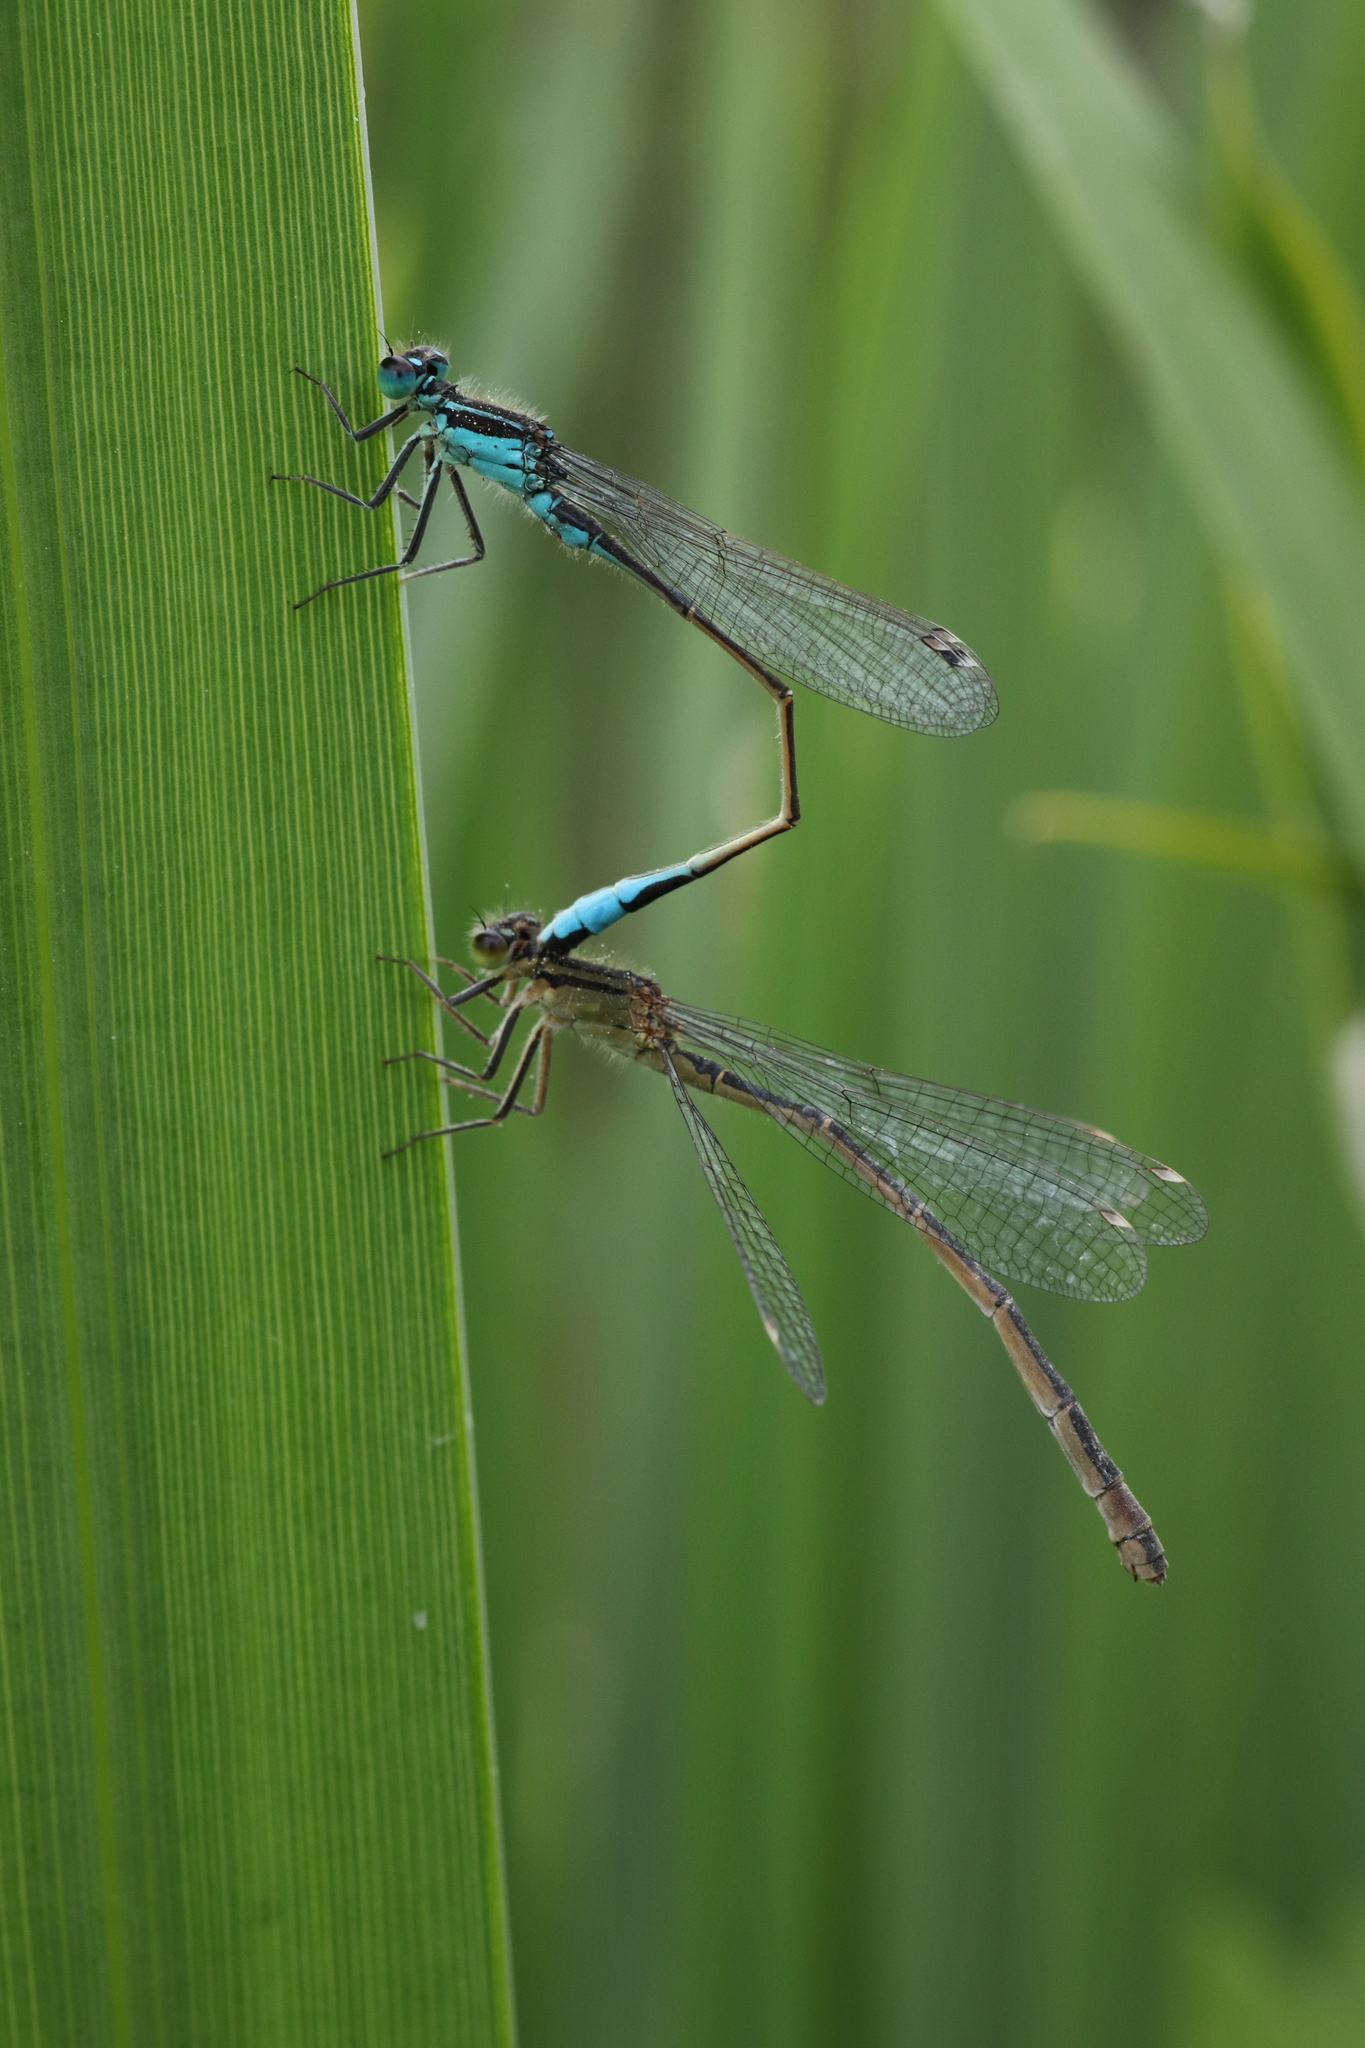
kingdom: Animalia
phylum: Arthropoda
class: Insecta
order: Odonata
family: Coenagrionidae
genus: Ischnura
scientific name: Ischnura elegans
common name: Blue-tailed damselfly
